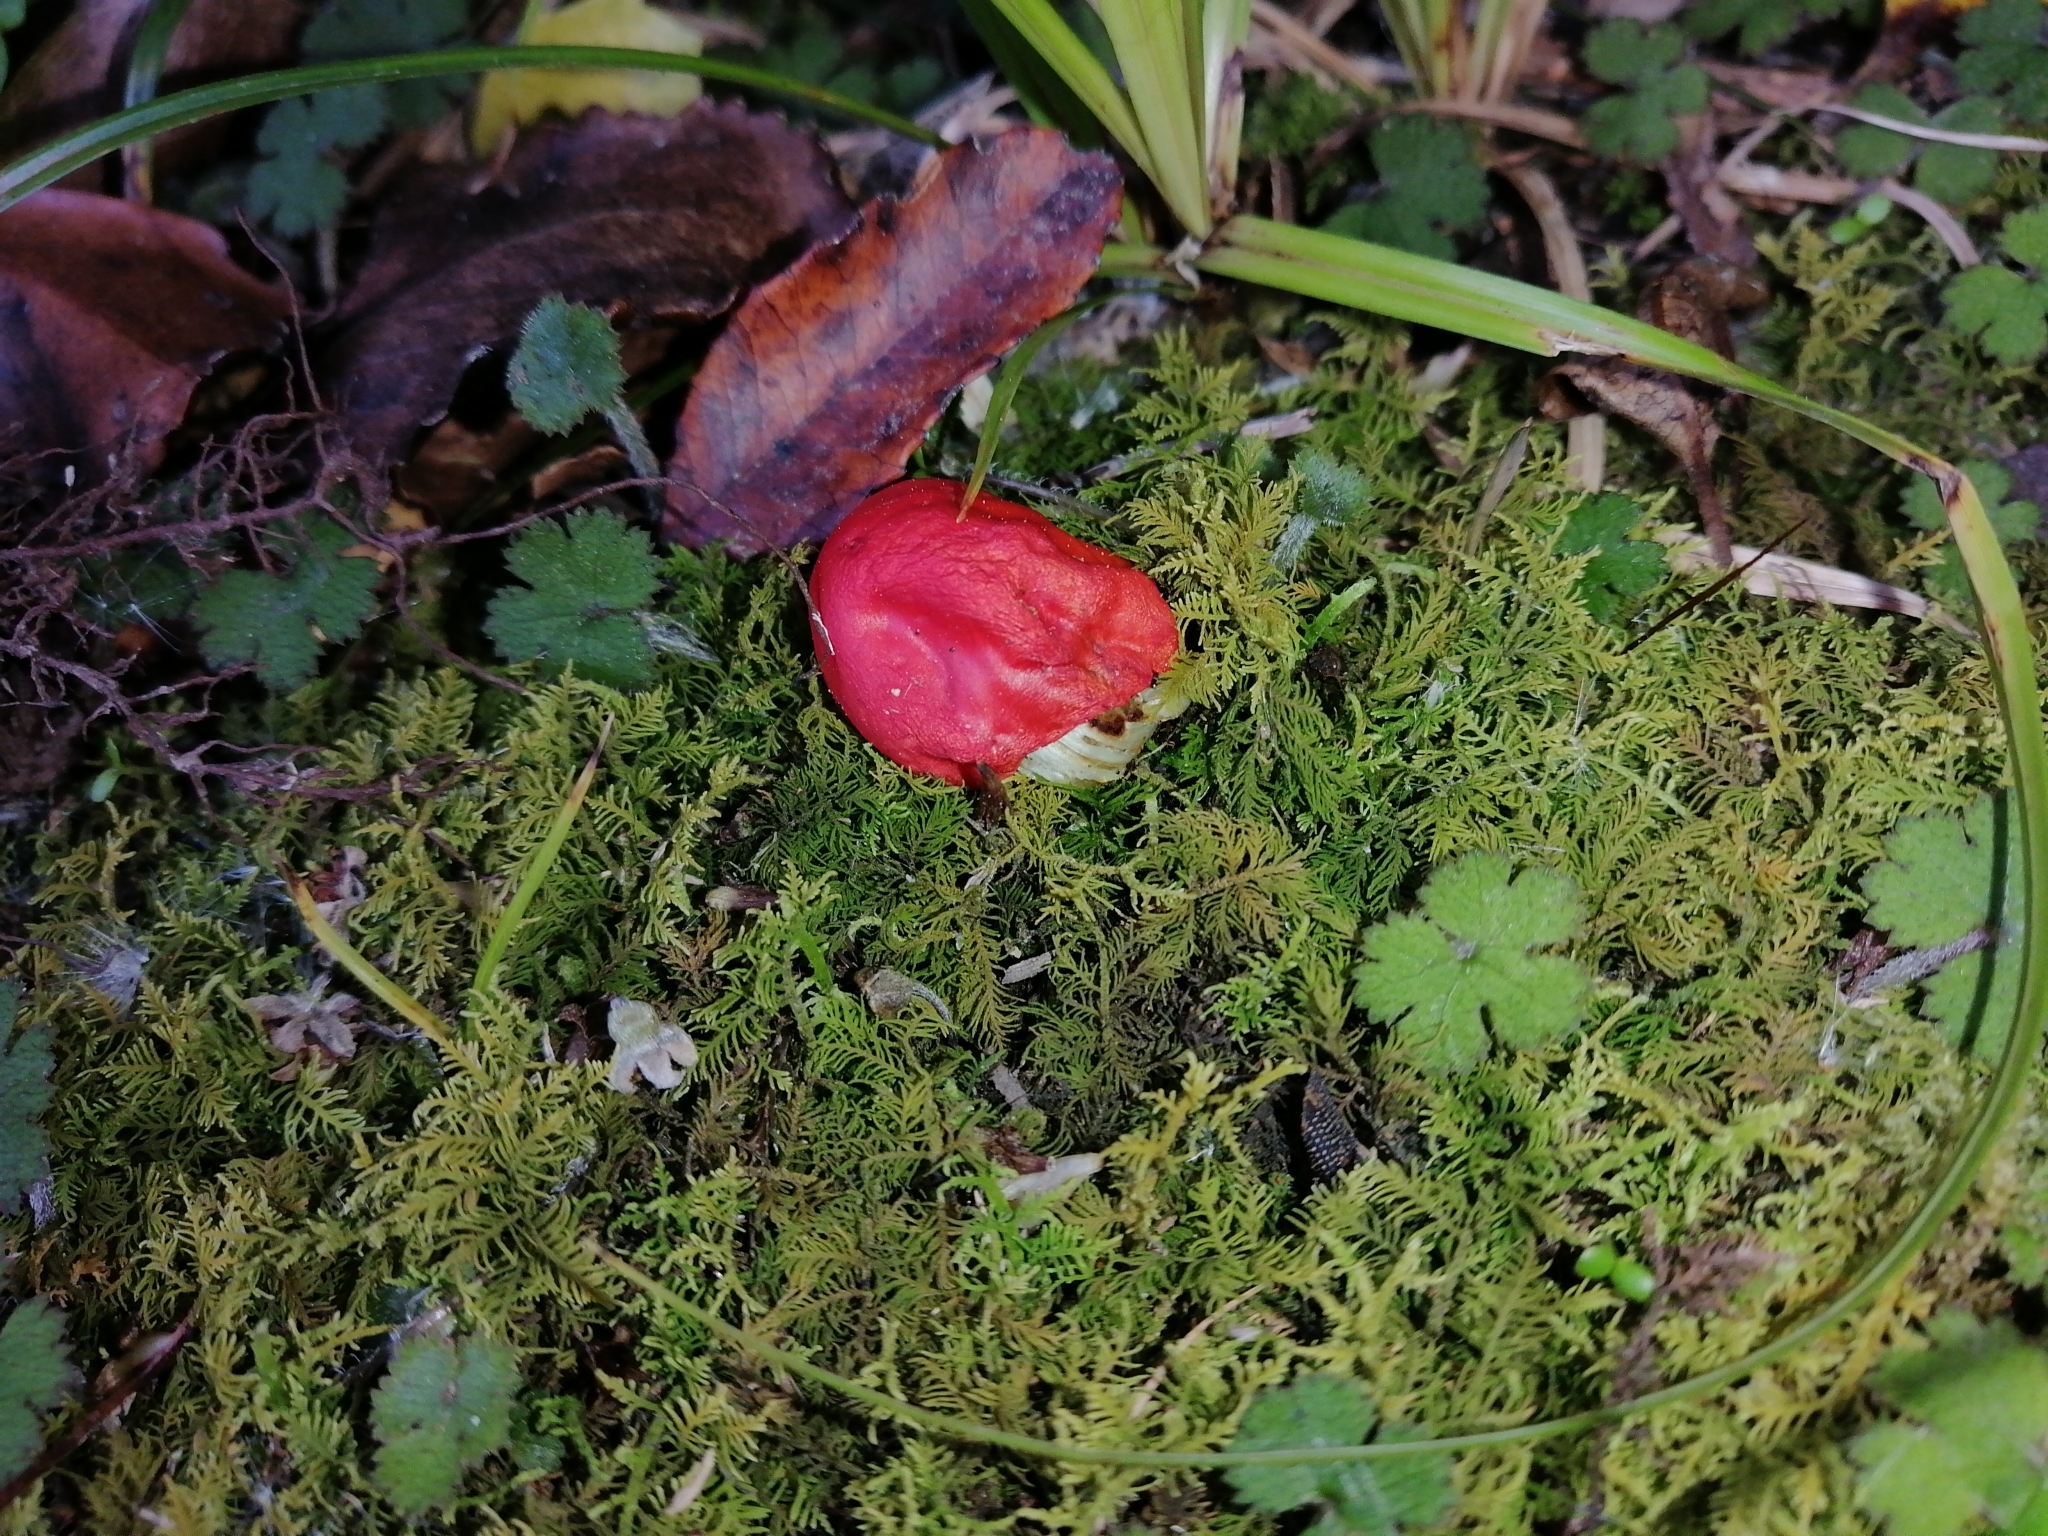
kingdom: Fungi
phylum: Basidiomycota
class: Agaricomycetes
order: Agaricales
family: Strophariaceae
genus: Leratiomyces
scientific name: Leratiomyces erythrocephalus
